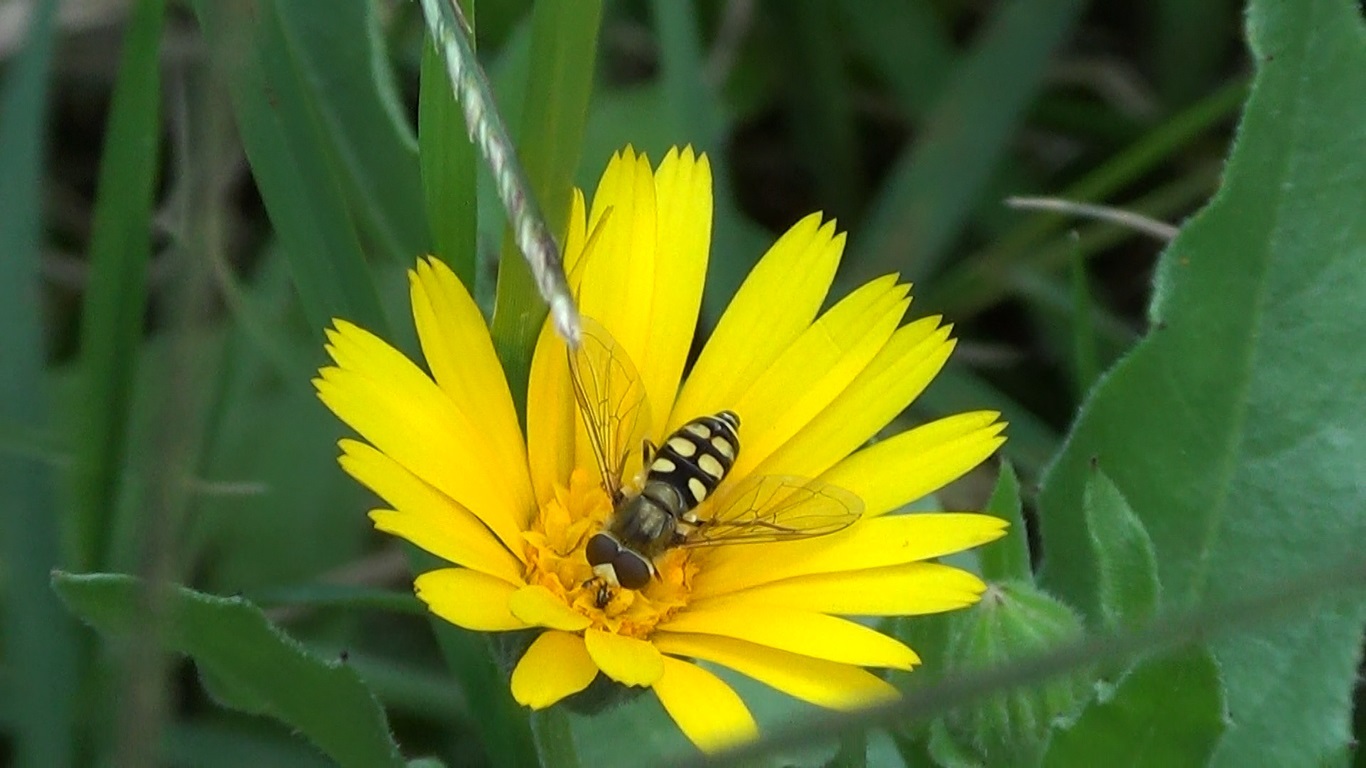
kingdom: Animalia
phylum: Arthropoda
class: Insecta
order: Diptera
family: Syrphidae
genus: Eupeodes
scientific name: Eupeodes corollae
